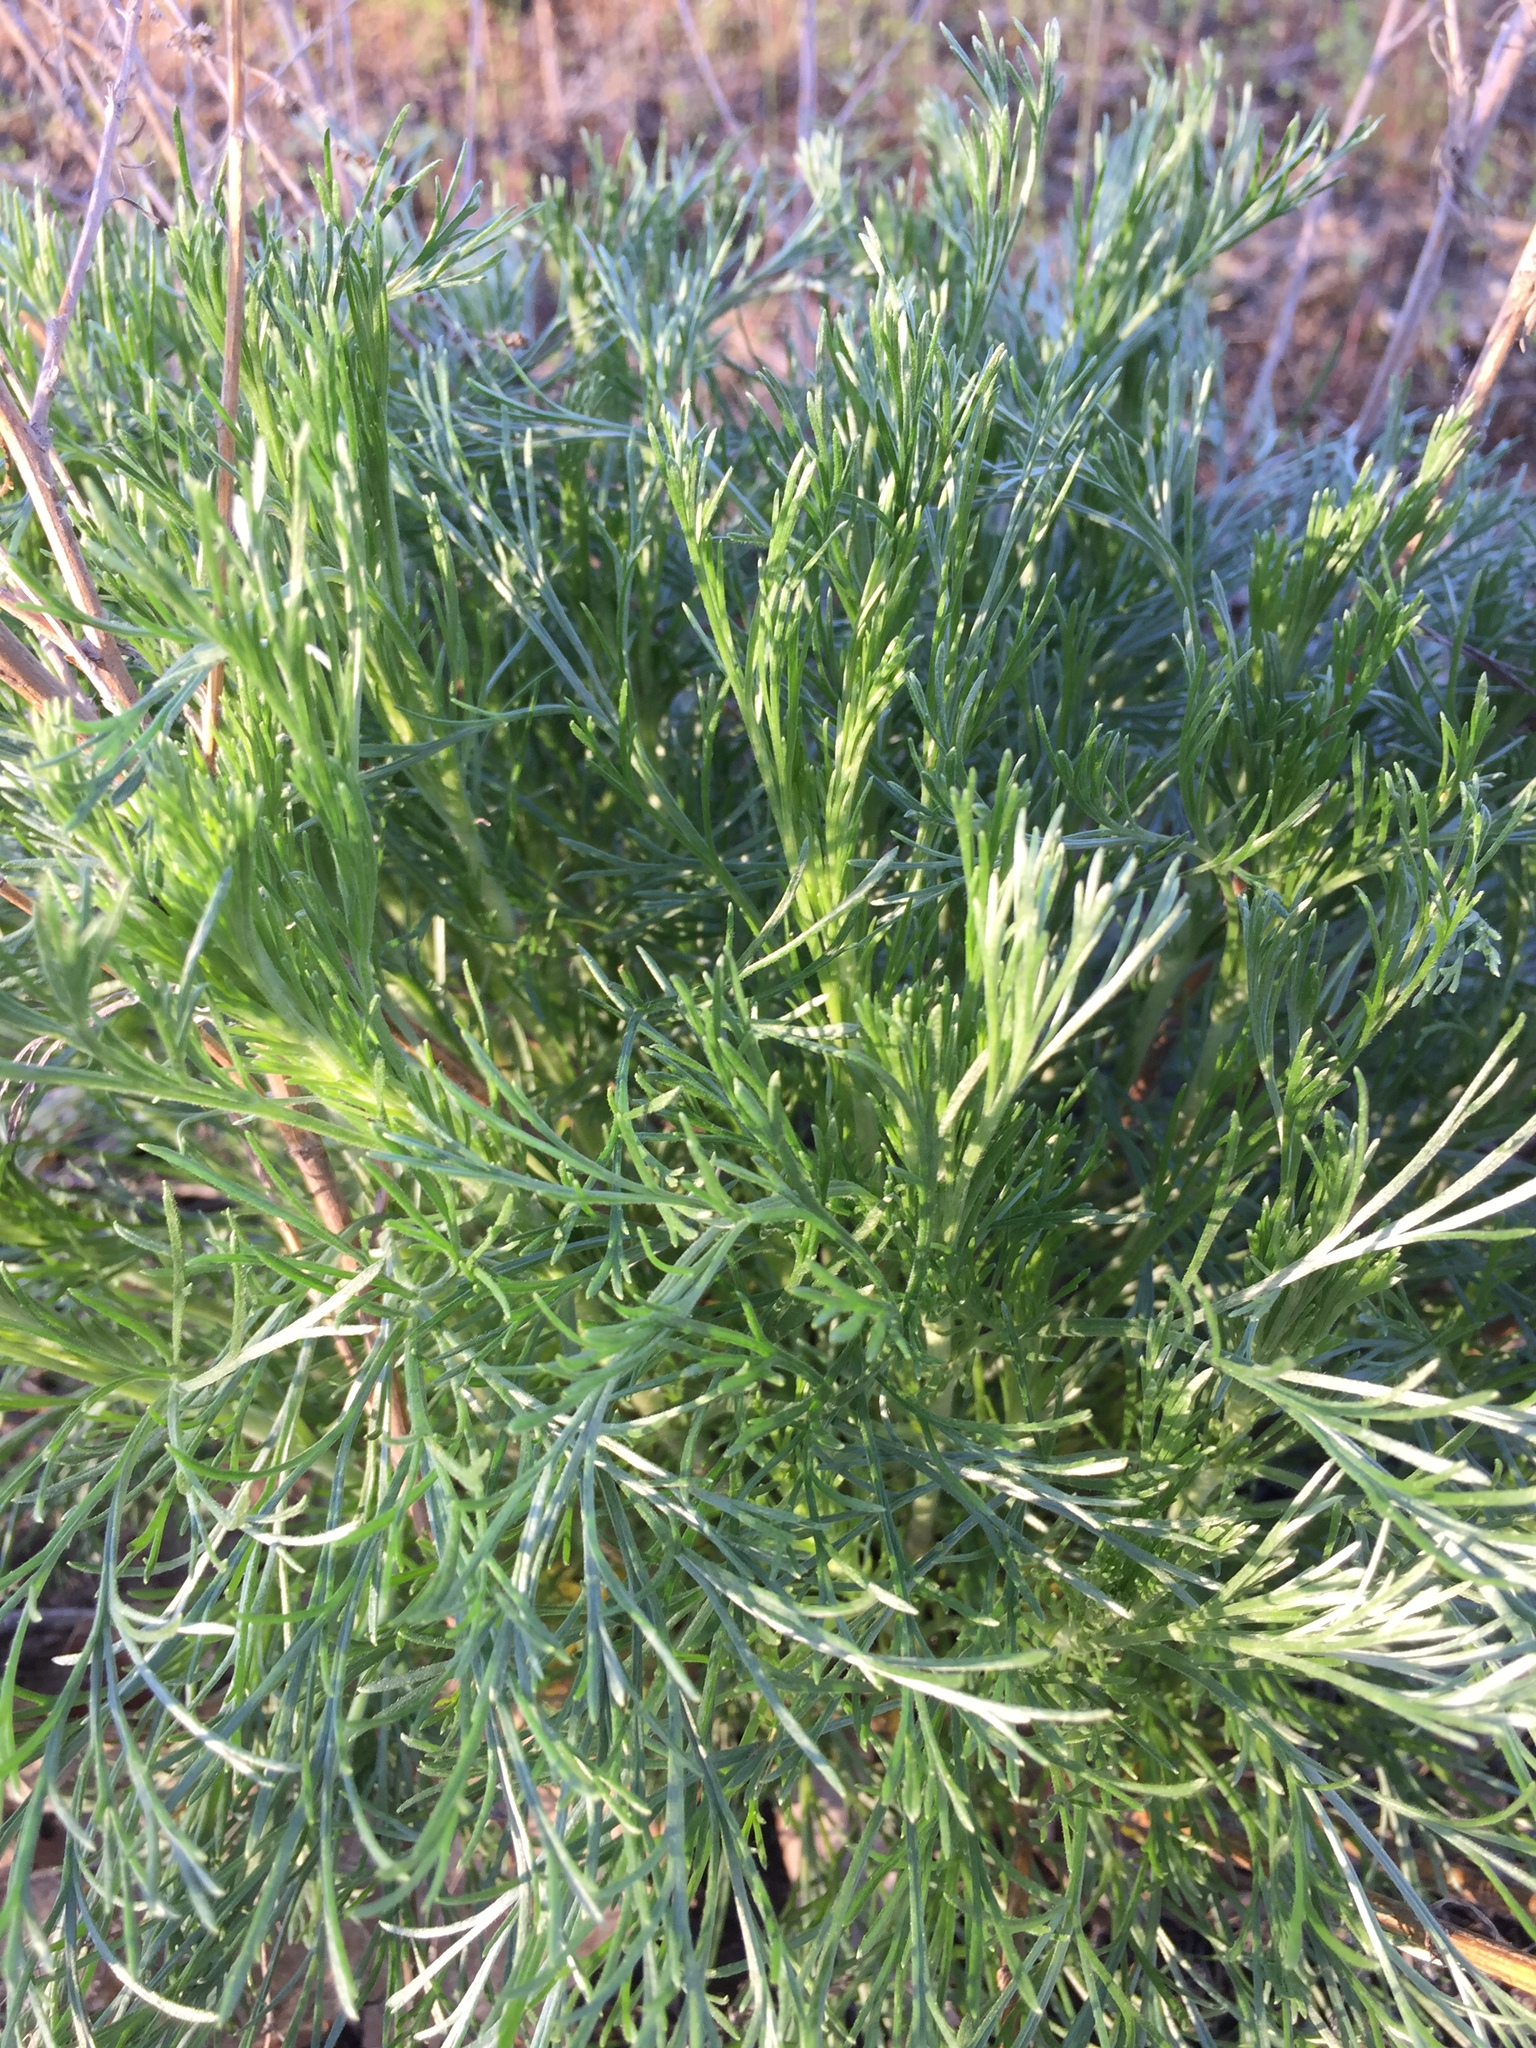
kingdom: Plantae
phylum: Tracheophyta
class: Magnoliopsida
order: Asterales
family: Asteraceae
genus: Artemisia
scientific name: Artemisia campestris
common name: Field wormwood
